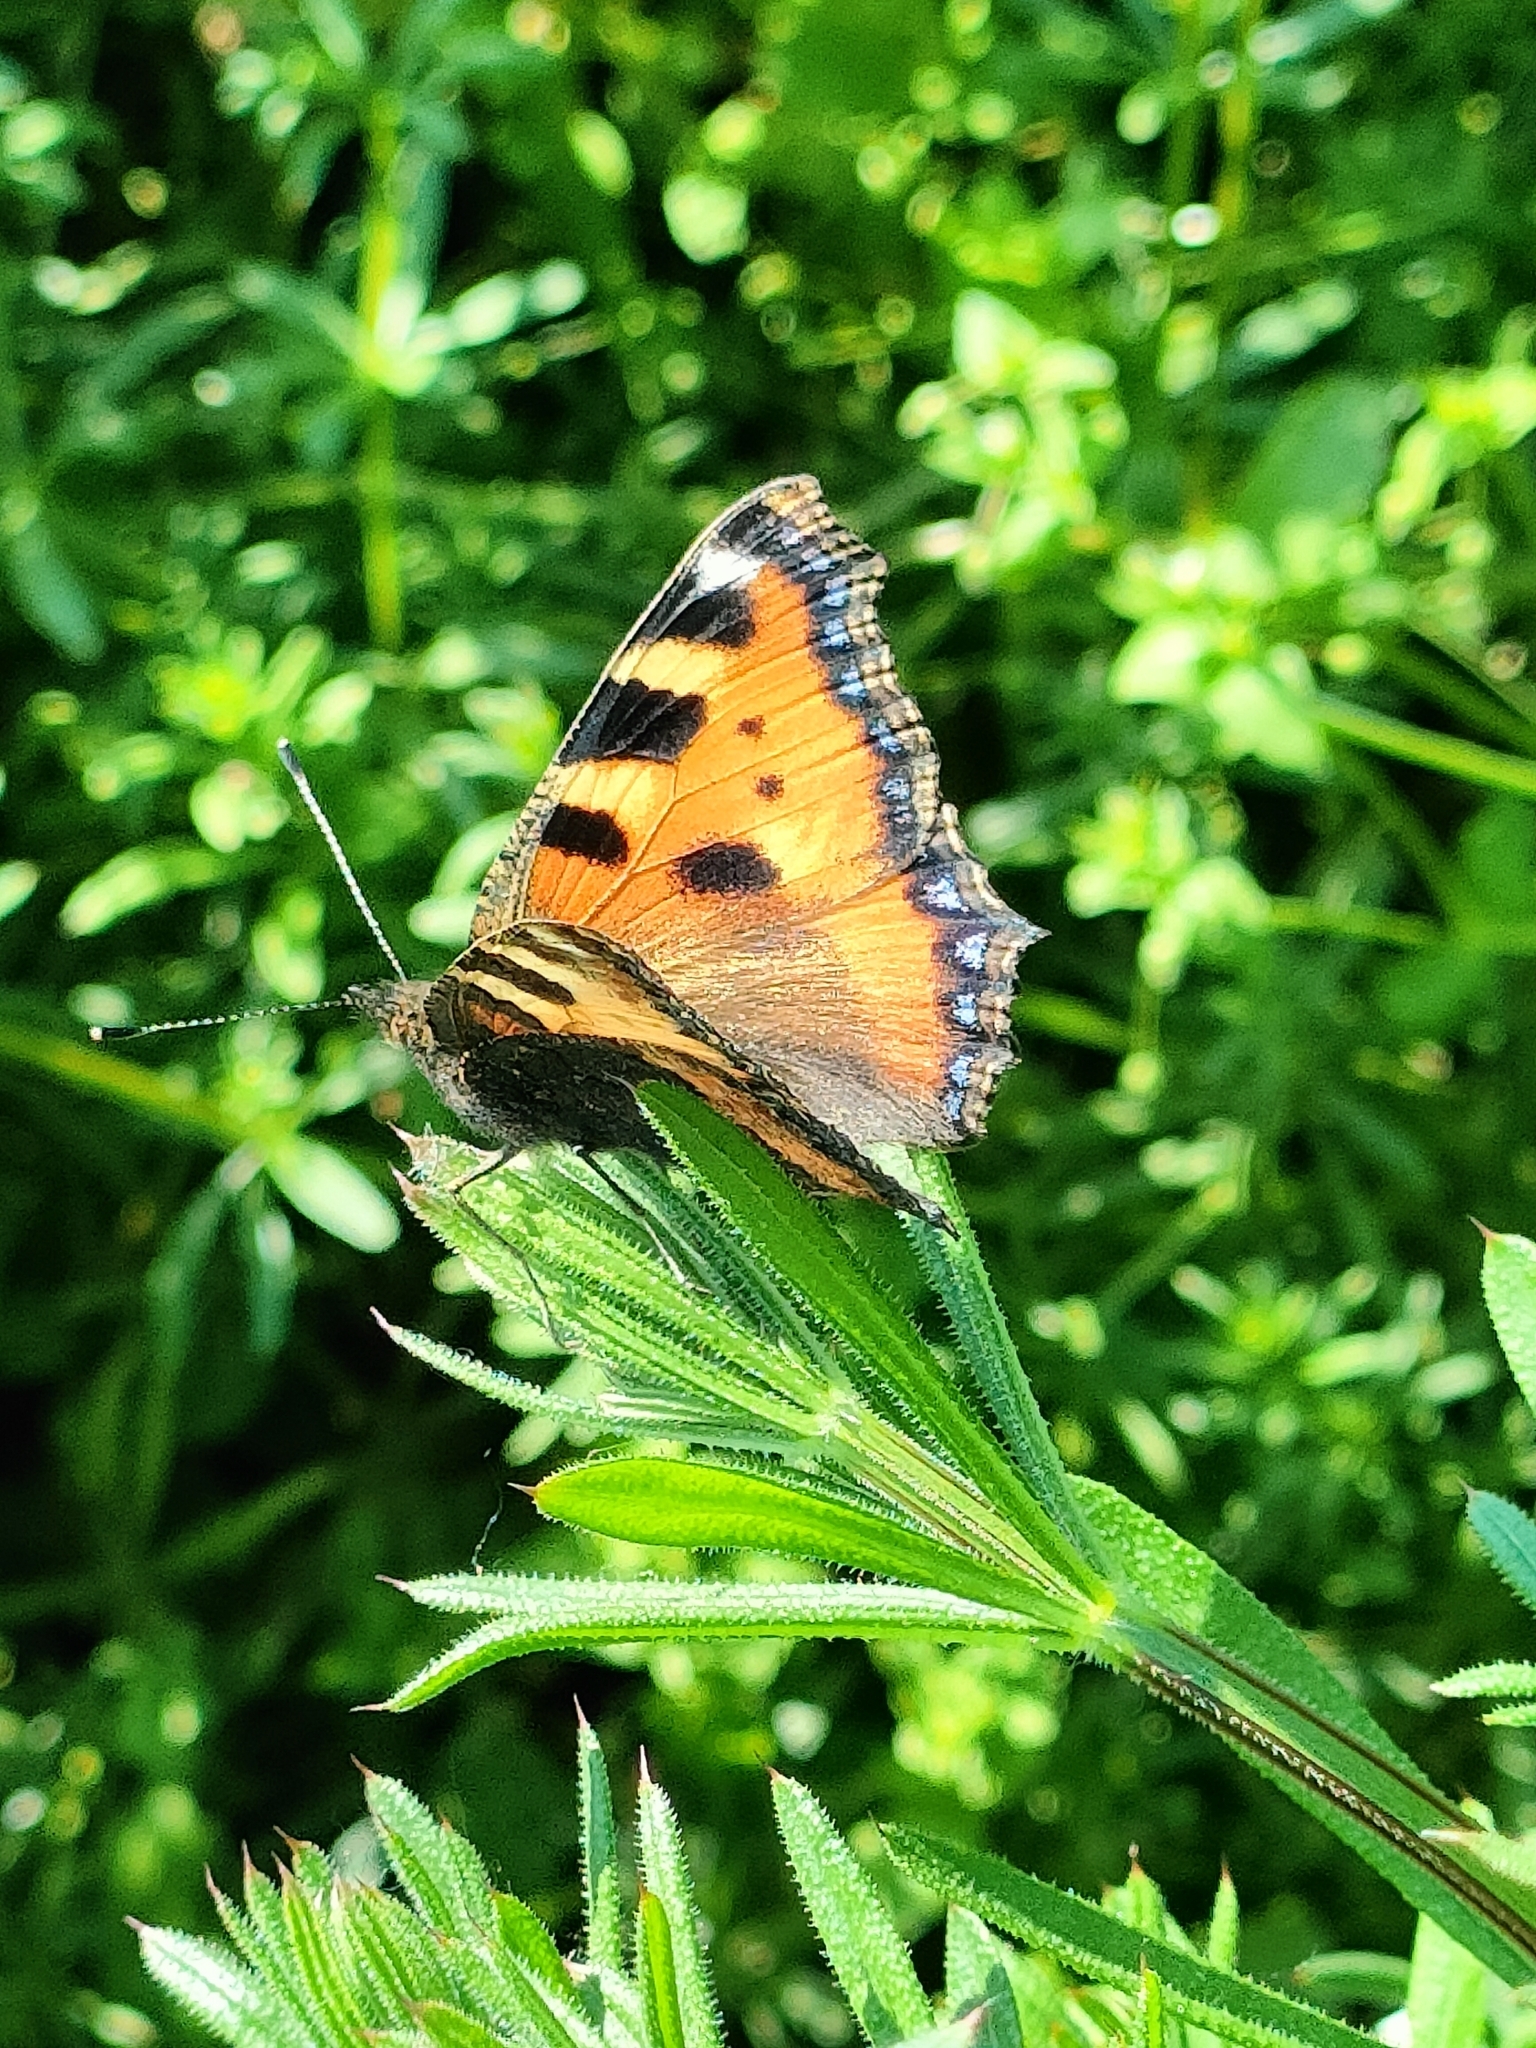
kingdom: Animalia
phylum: Arthropoda
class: Insecta
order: Lepidoptera
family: Nymphalidae
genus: Aglais
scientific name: Aglais urticae
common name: Small tortoiseshell
